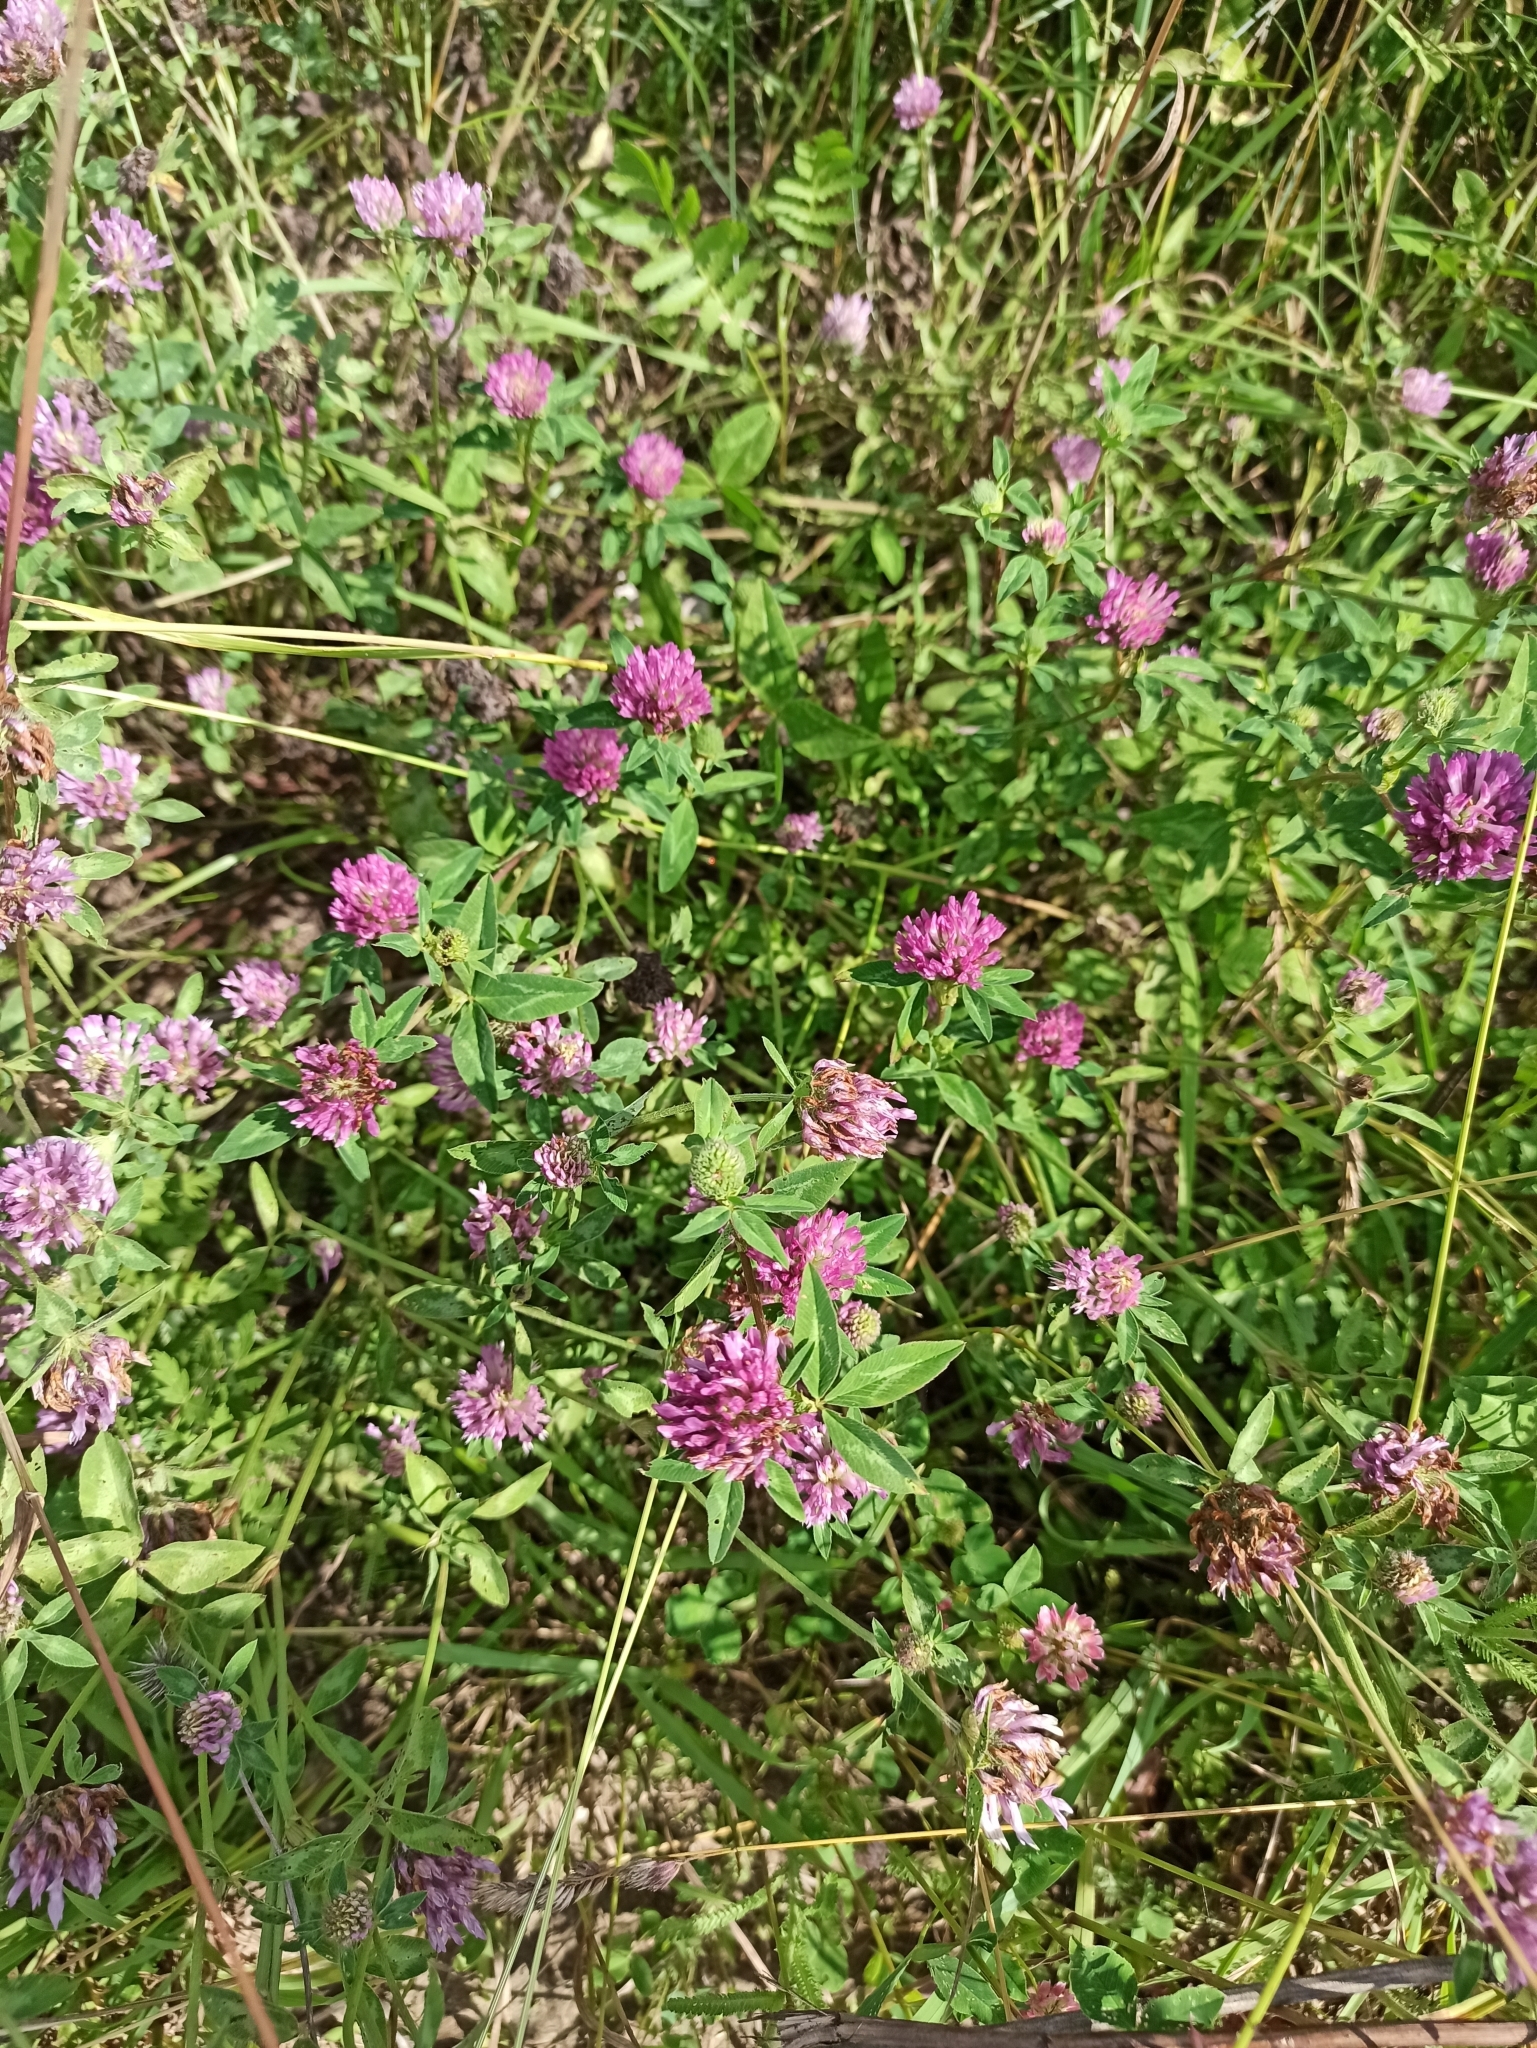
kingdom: Plantae
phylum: Tracheophyta
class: Magnoliopsida
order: Fabales
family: Fabaceae
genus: Trifolium
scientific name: Trifolium medium
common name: Zigzag clover
